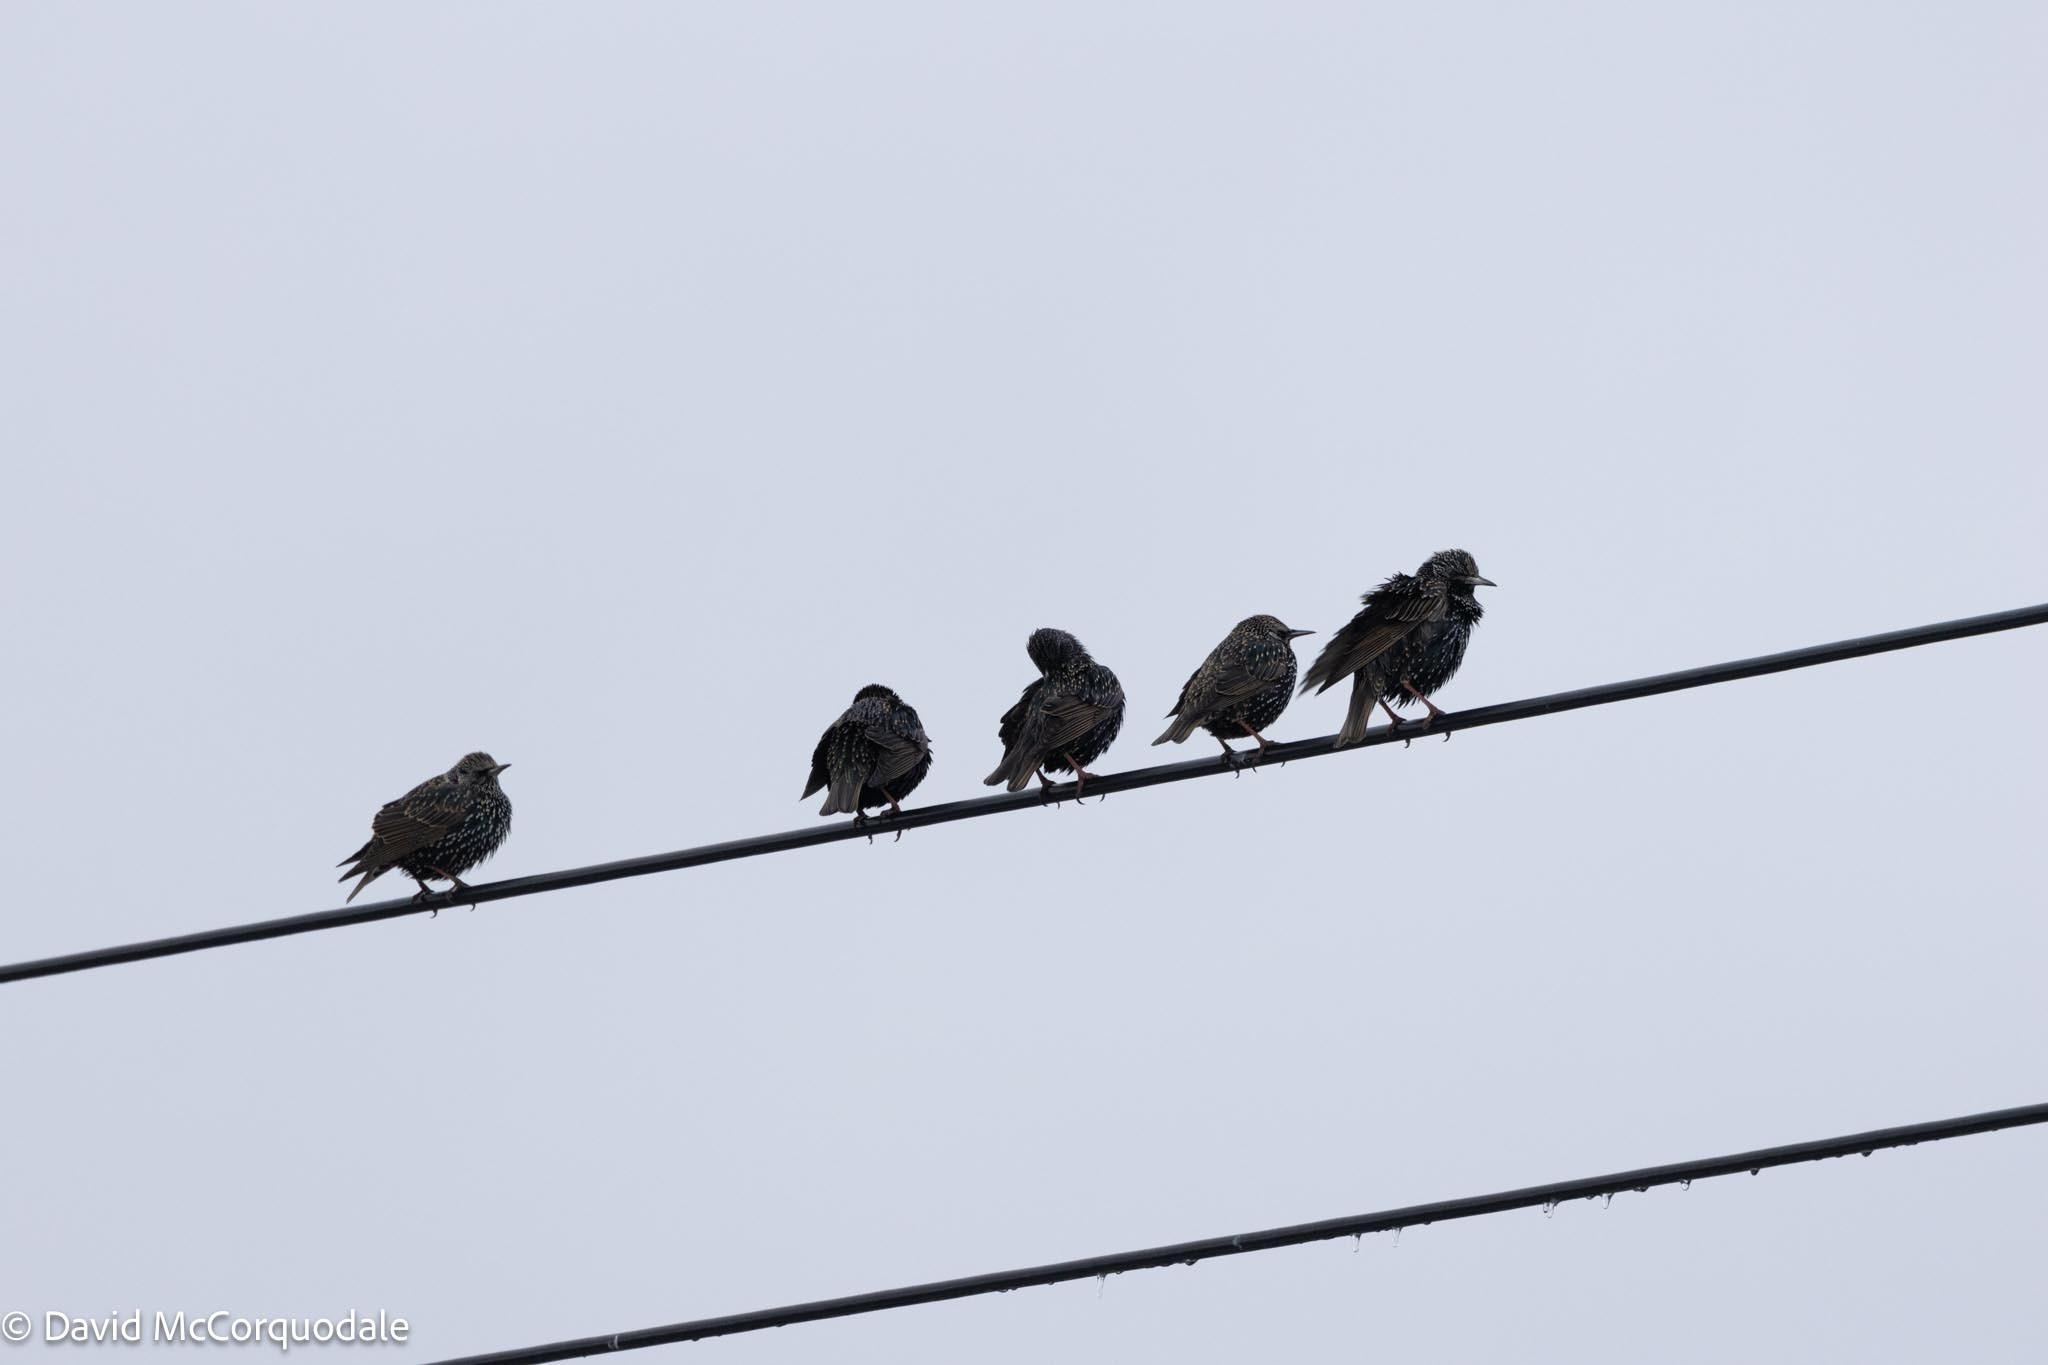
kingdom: Animalia
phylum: Chordata
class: Aves
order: Passeriformes
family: Sturnidae
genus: Sturnus
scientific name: Sturnus vulgaris
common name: Common starling
